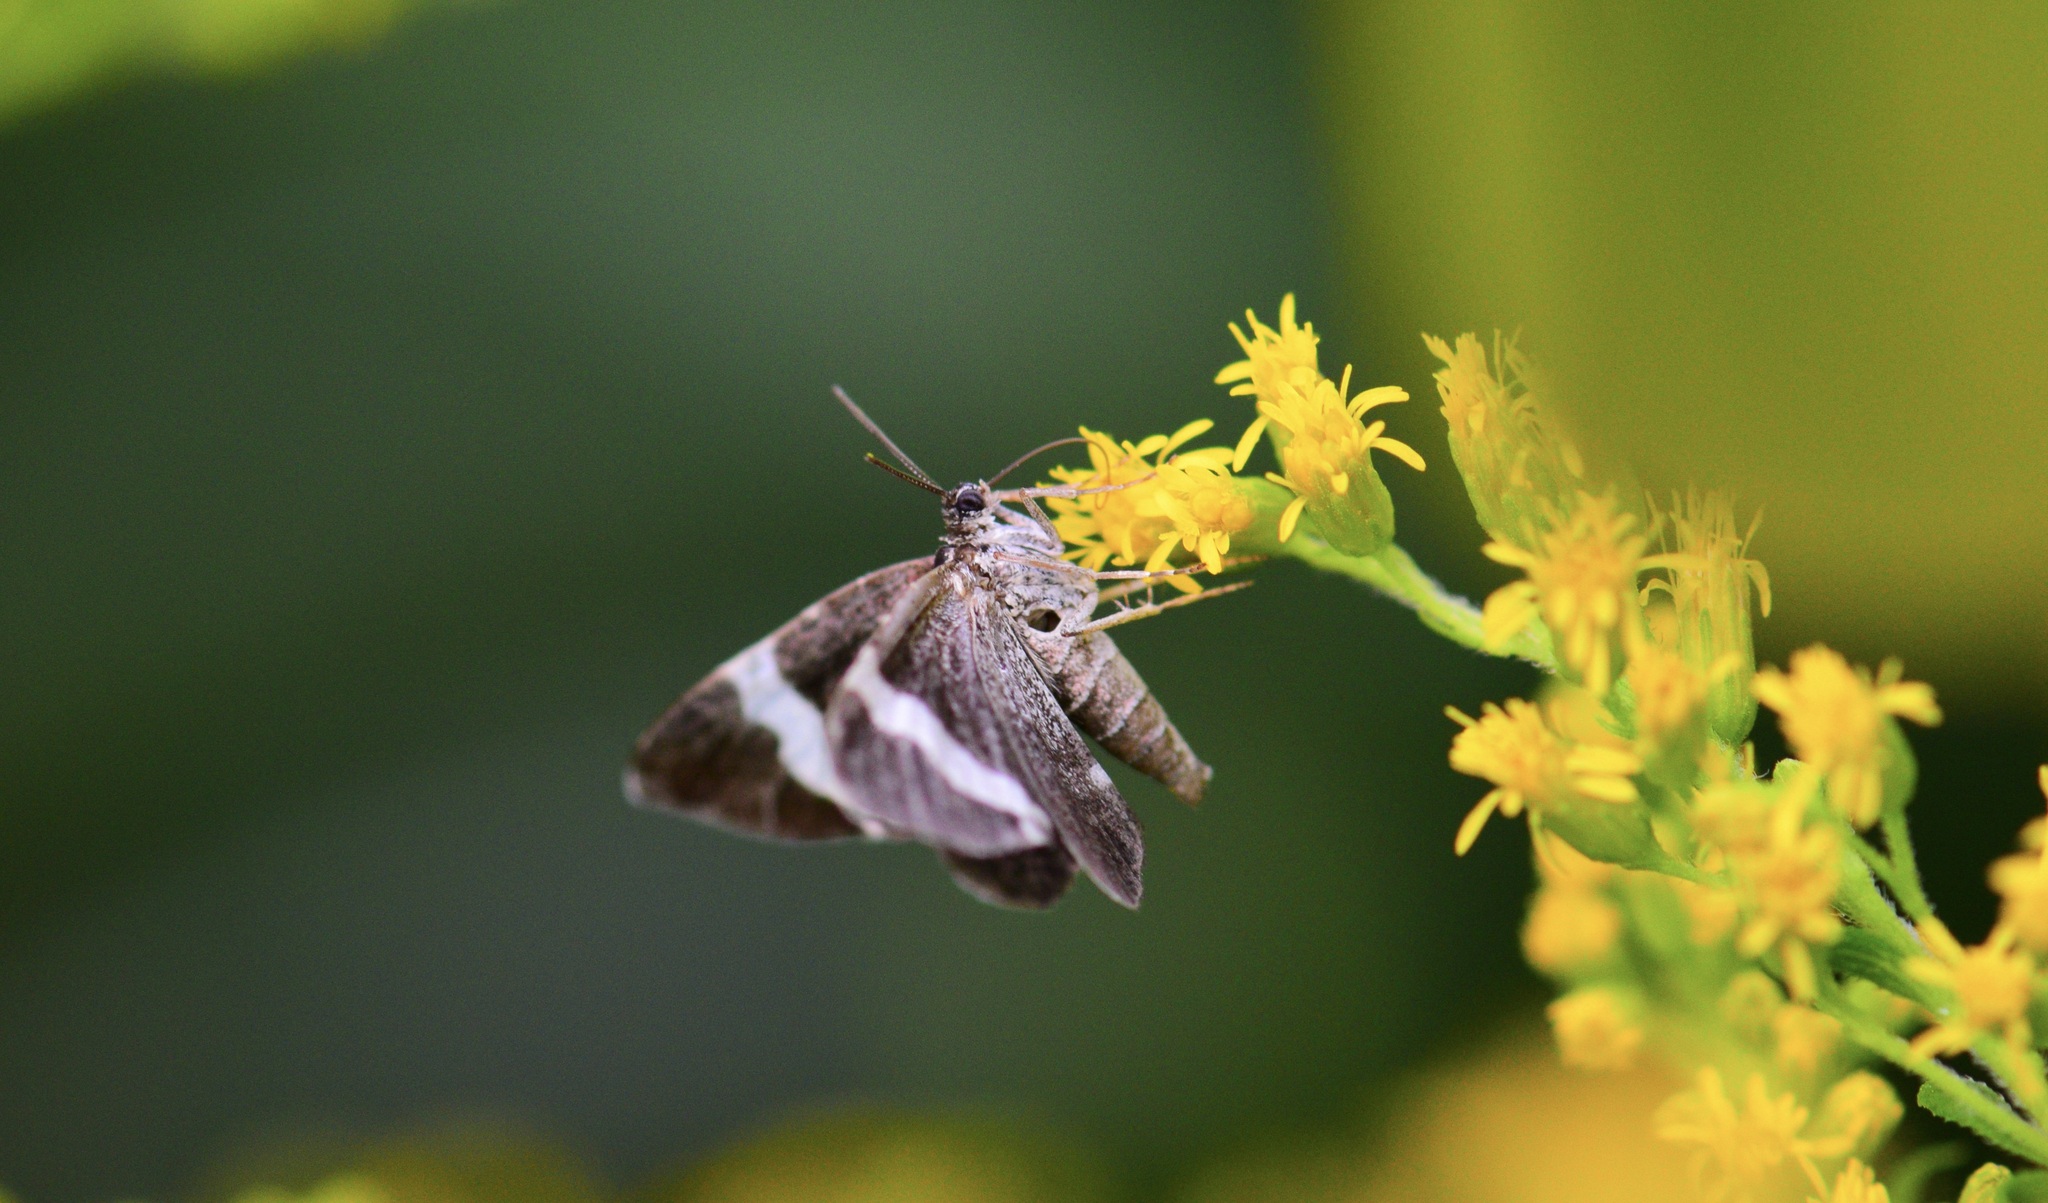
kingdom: Animalia
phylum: Arthropoda
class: Insecta
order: Lepidoptera
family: Geometridae
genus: Trichodezia
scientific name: Trichodezia albovittata
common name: White striped black
